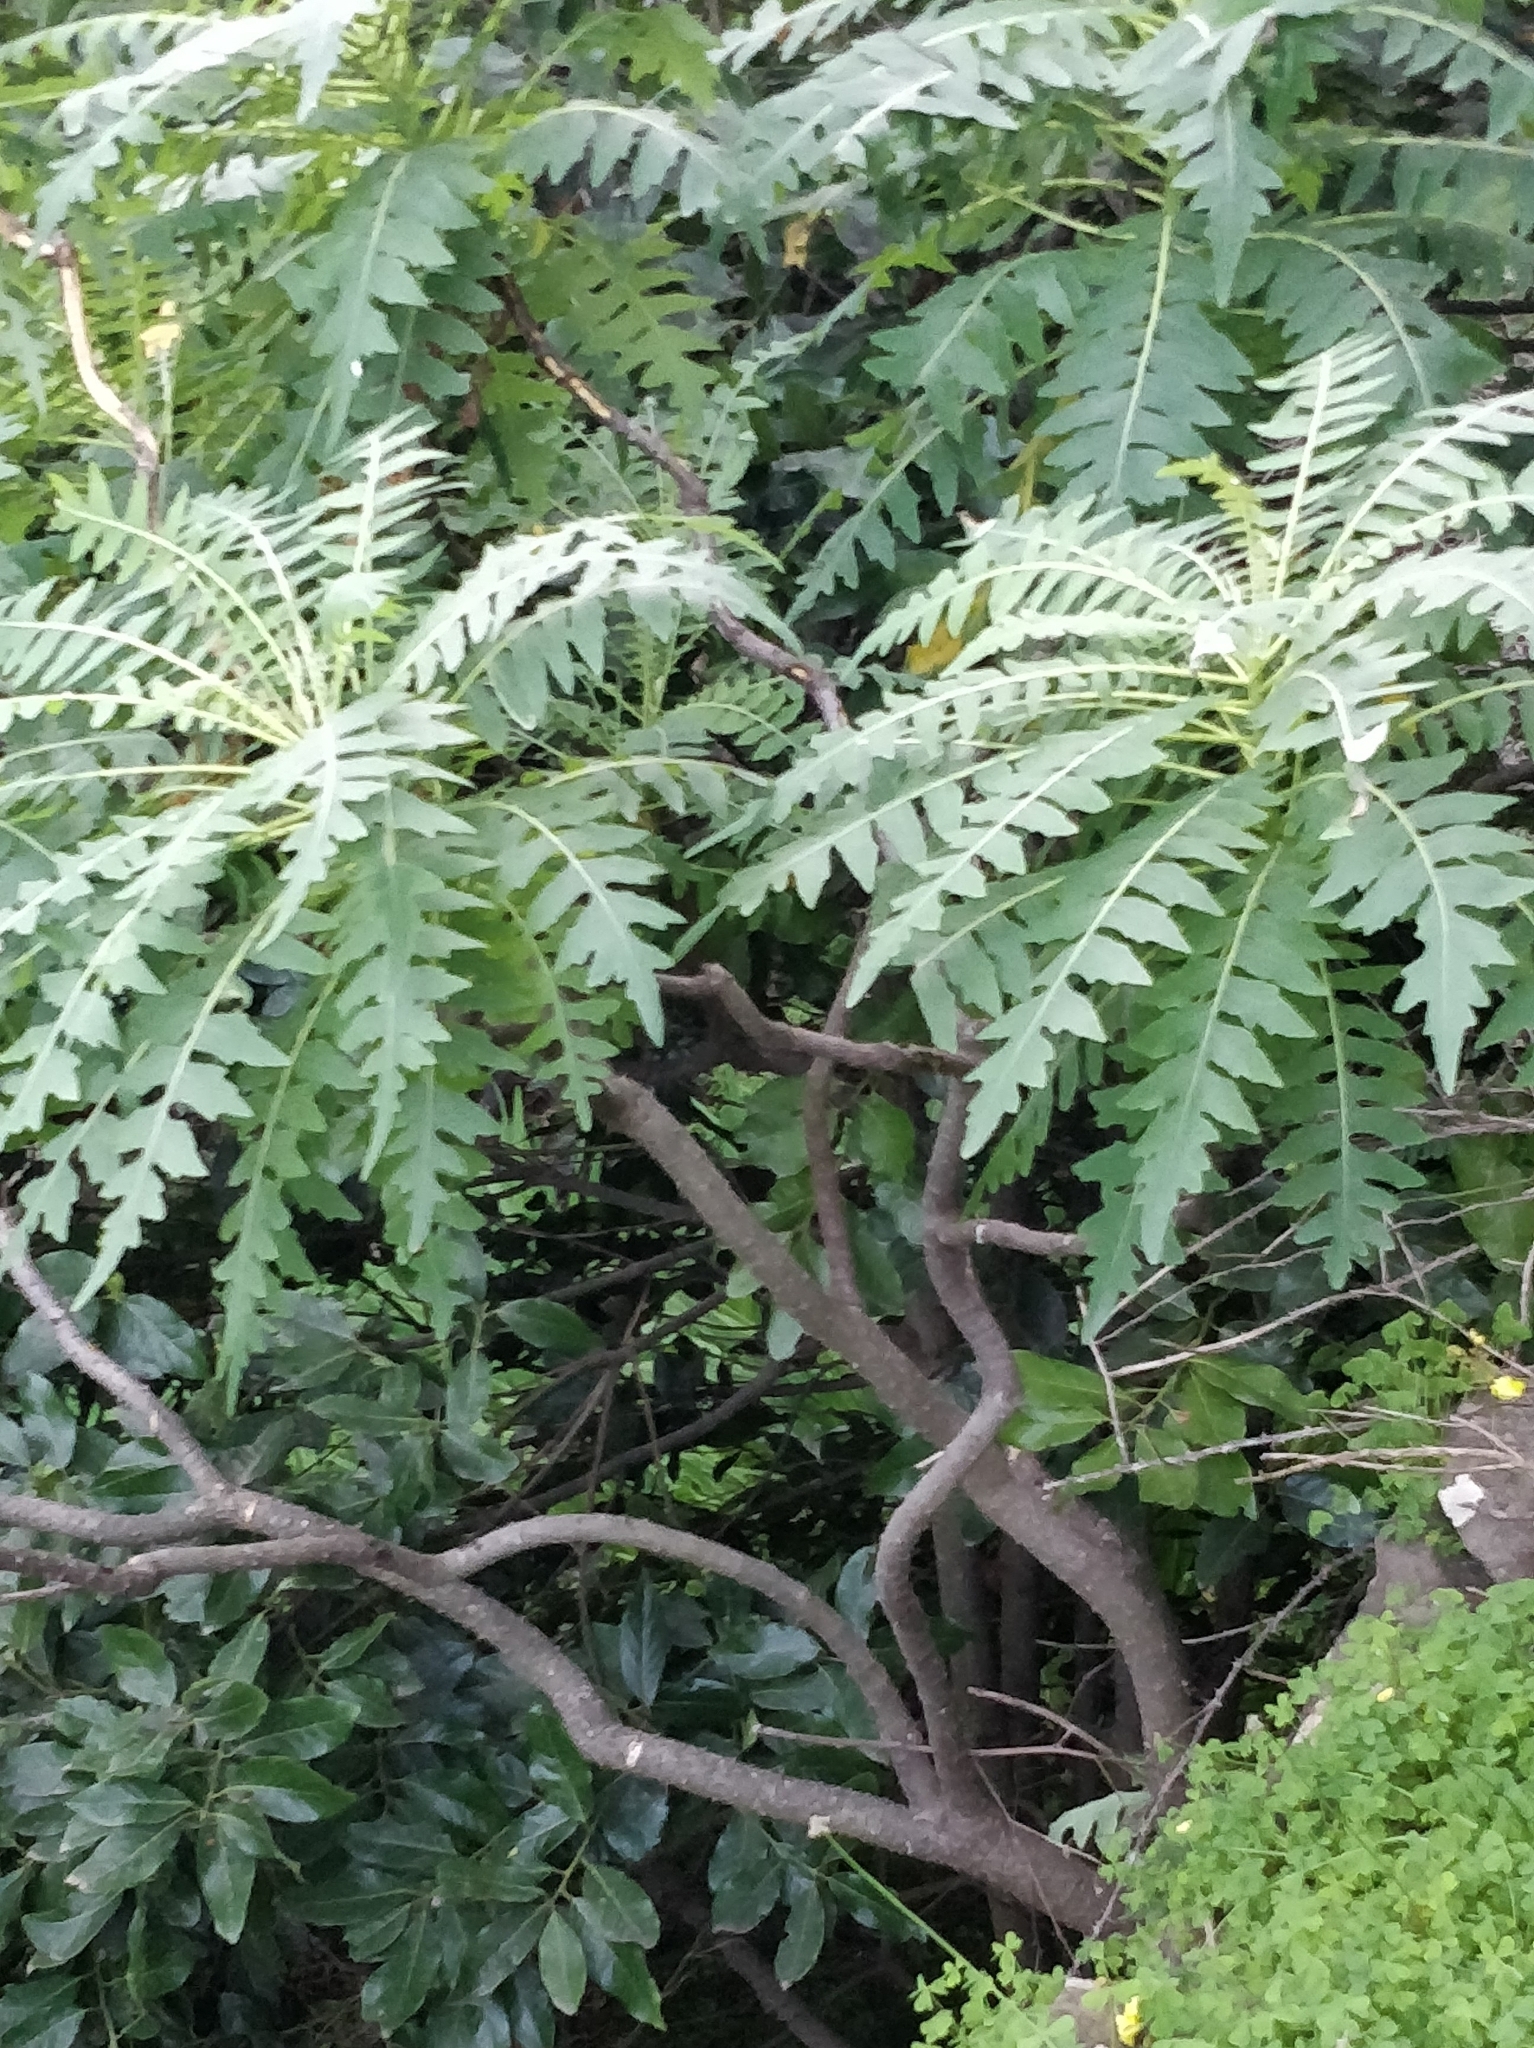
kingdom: Plantae
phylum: Tracheophyta
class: Magnoliopsida
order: Asterales
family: Asteraceae
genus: Sonchus
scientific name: Sonchus pinnatus
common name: Wing-leaved sow-thistle
